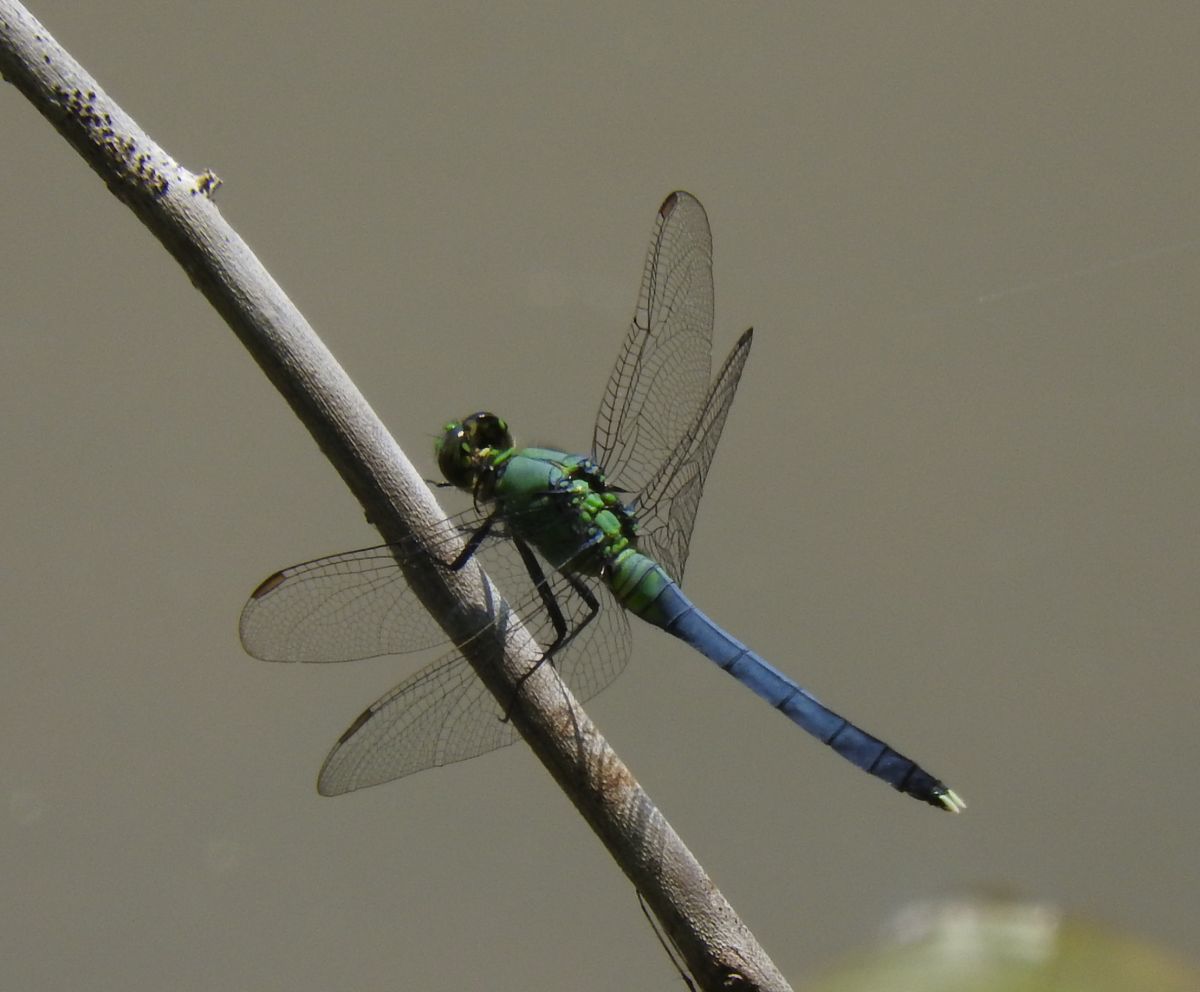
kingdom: Animalia
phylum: Arthropoda
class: Insecta
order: Odonata
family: Libellulidae
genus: Erythemis
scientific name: Erythemis simplicicollis
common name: Eastern pondhawk
